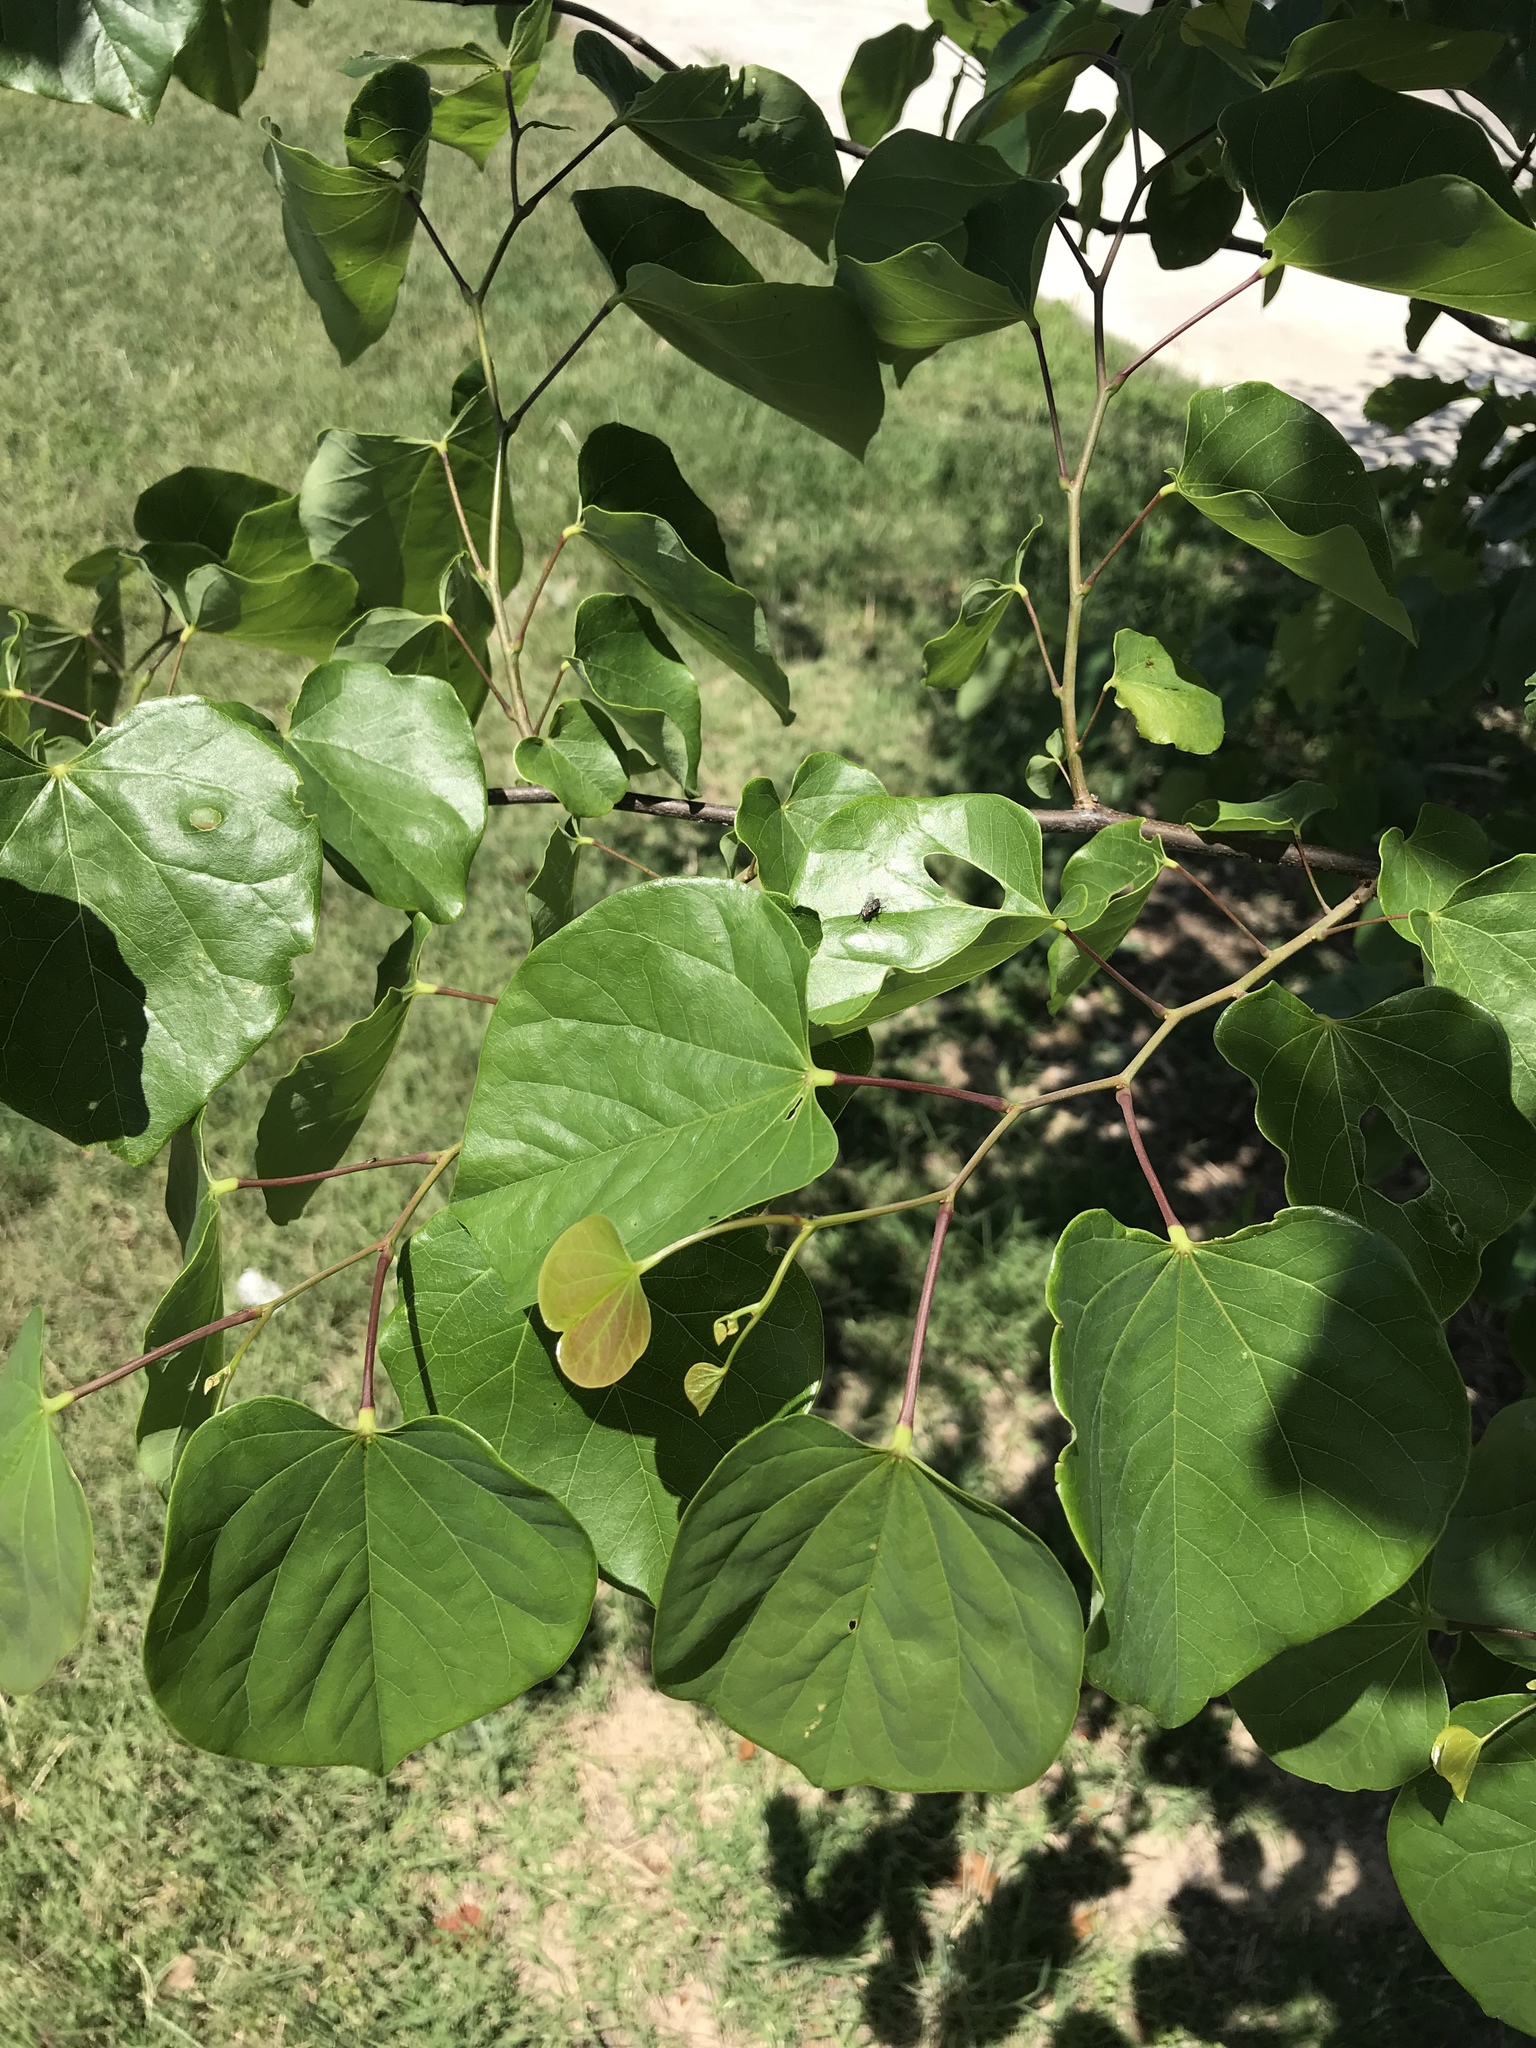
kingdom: Plantae
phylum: Tracheophyta
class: Magnoliopsida
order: Fabales
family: Fabaceae
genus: Cercis
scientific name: Cercis canadensis
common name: Eastern redbud
